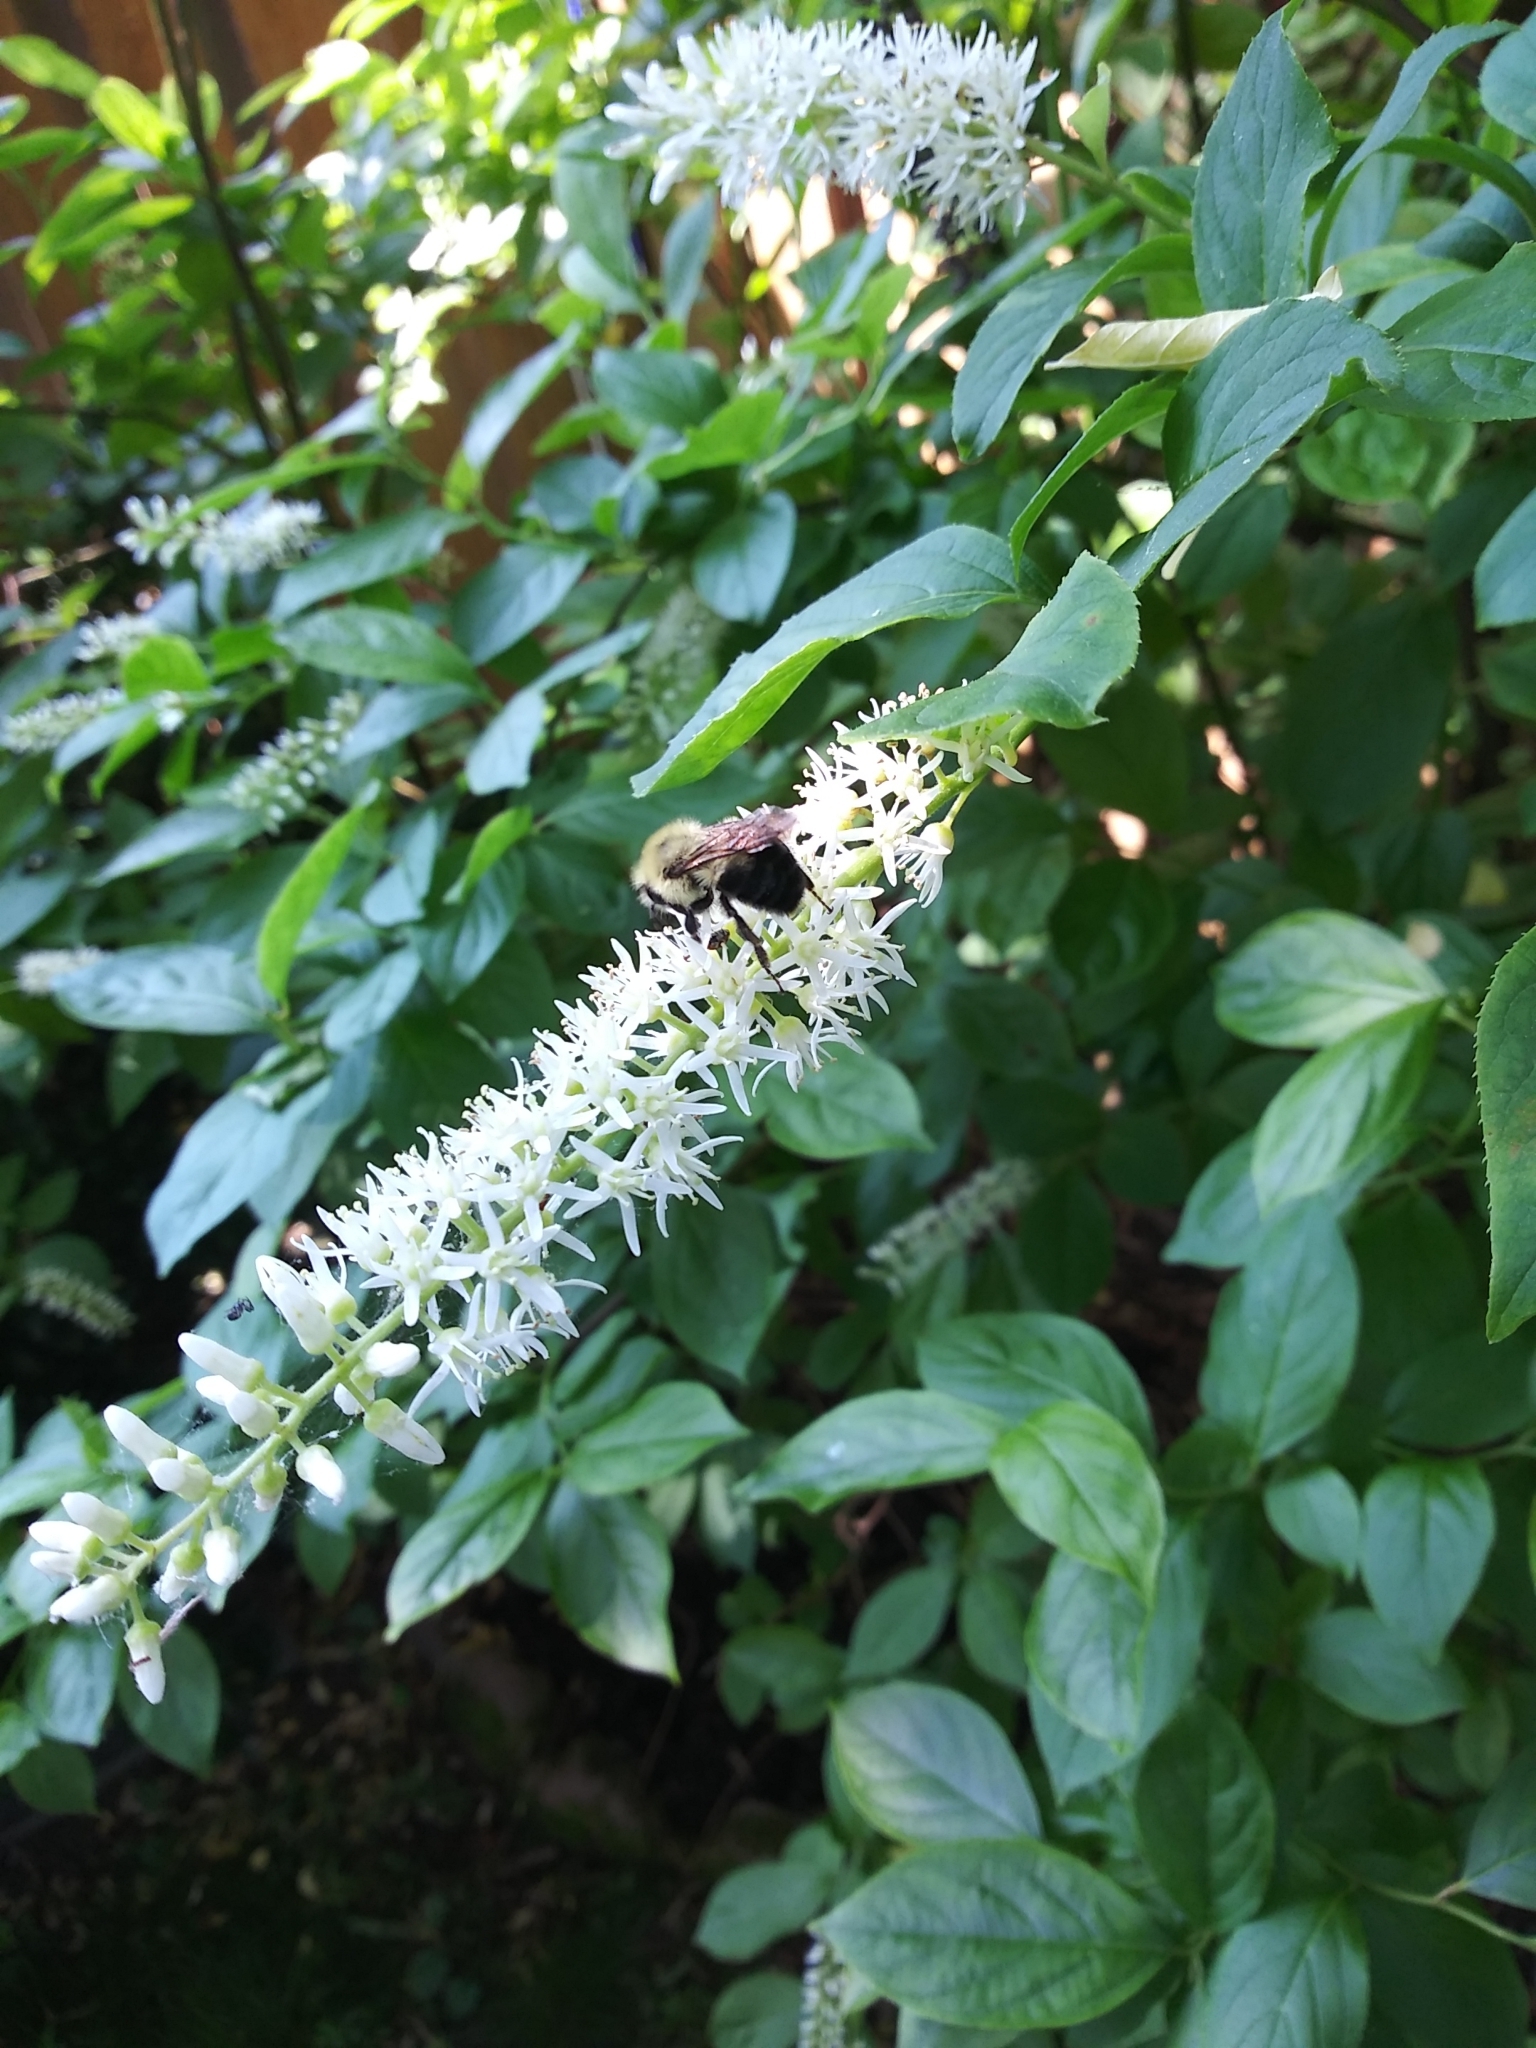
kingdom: Animalia
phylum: Arthropoda
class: Insecta
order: Hymenoptera
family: Apidae
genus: Bombus
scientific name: Bombus bimaculatus
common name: Two-spotted bumble bee
